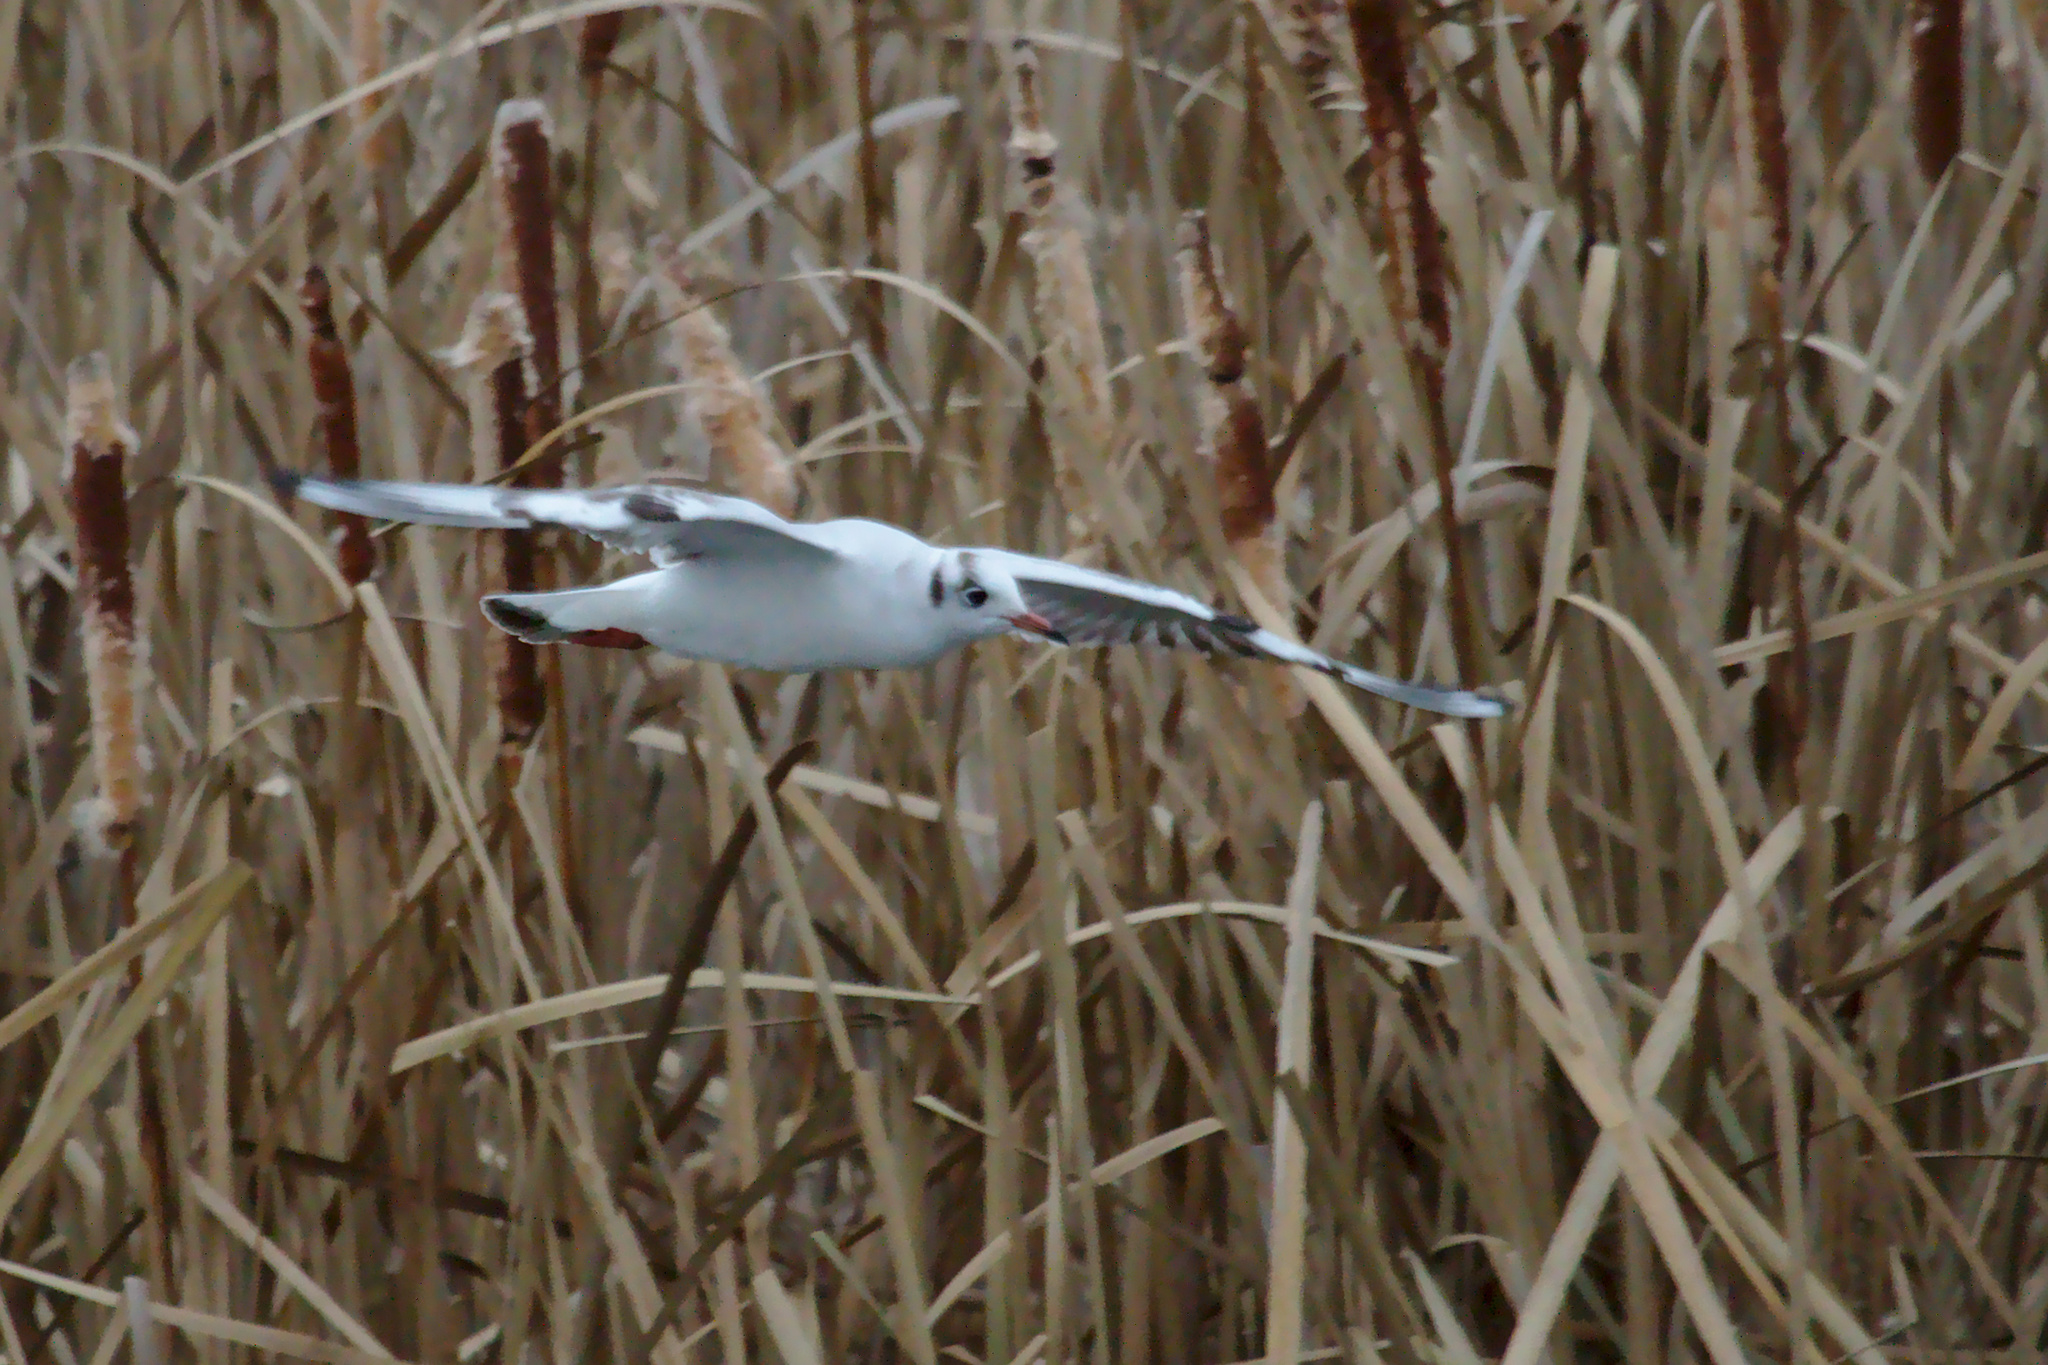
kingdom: Animalia
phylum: Chordata
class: Aves
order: Charadriiformes
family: Laridae
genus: Chroicocephalus
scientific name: Chroicocephalus ridibundus
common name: Black-headed gull
